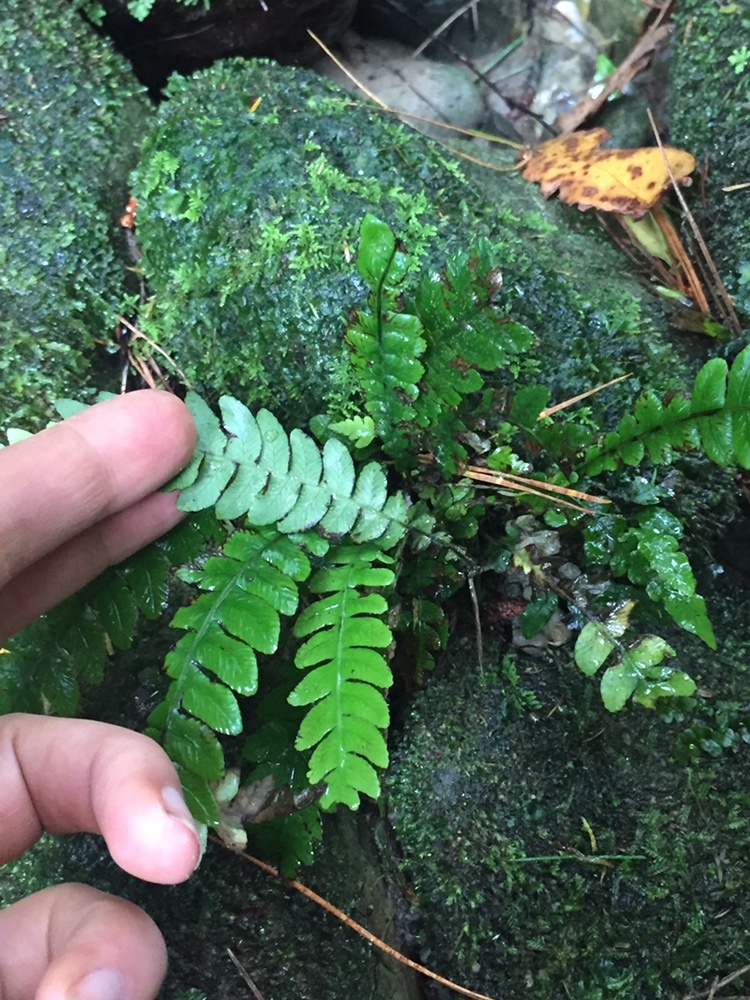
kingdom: Plantae
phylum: Tracheophyta
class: Polypodiopsida
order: Polypodiales
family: Blechnaceae
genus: Austroblechnum
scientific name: Austroblechnum lanceolatum
